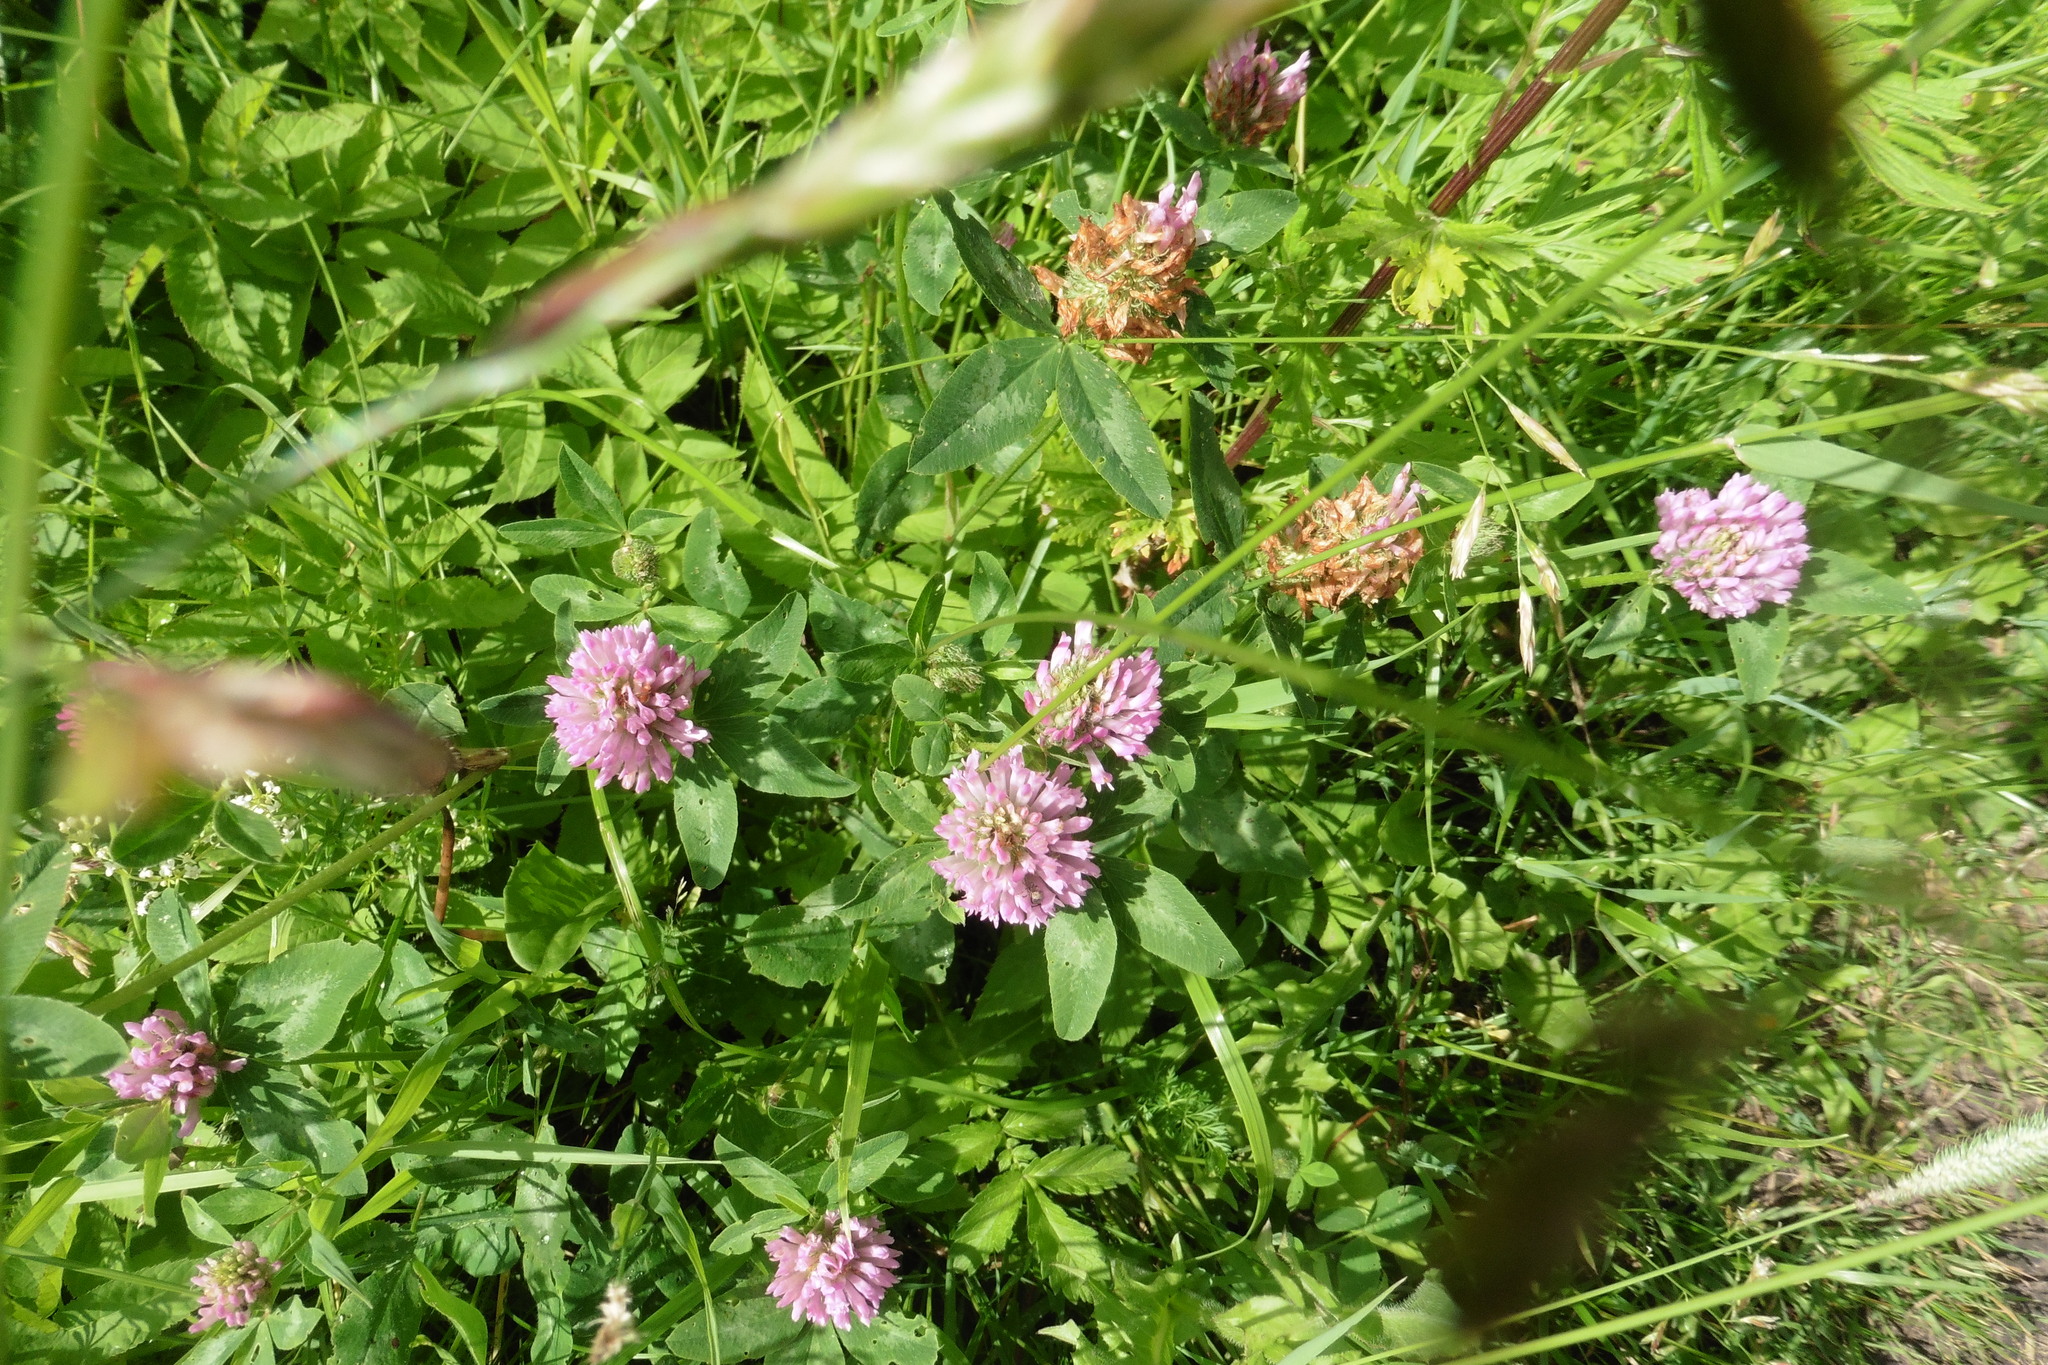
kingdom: Plantae
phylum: Tracheophyta
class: Magnoliopsida
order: Fabales
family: Fabaceae
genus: Trifolium
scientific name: Trifolium pratense
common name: Red clover
